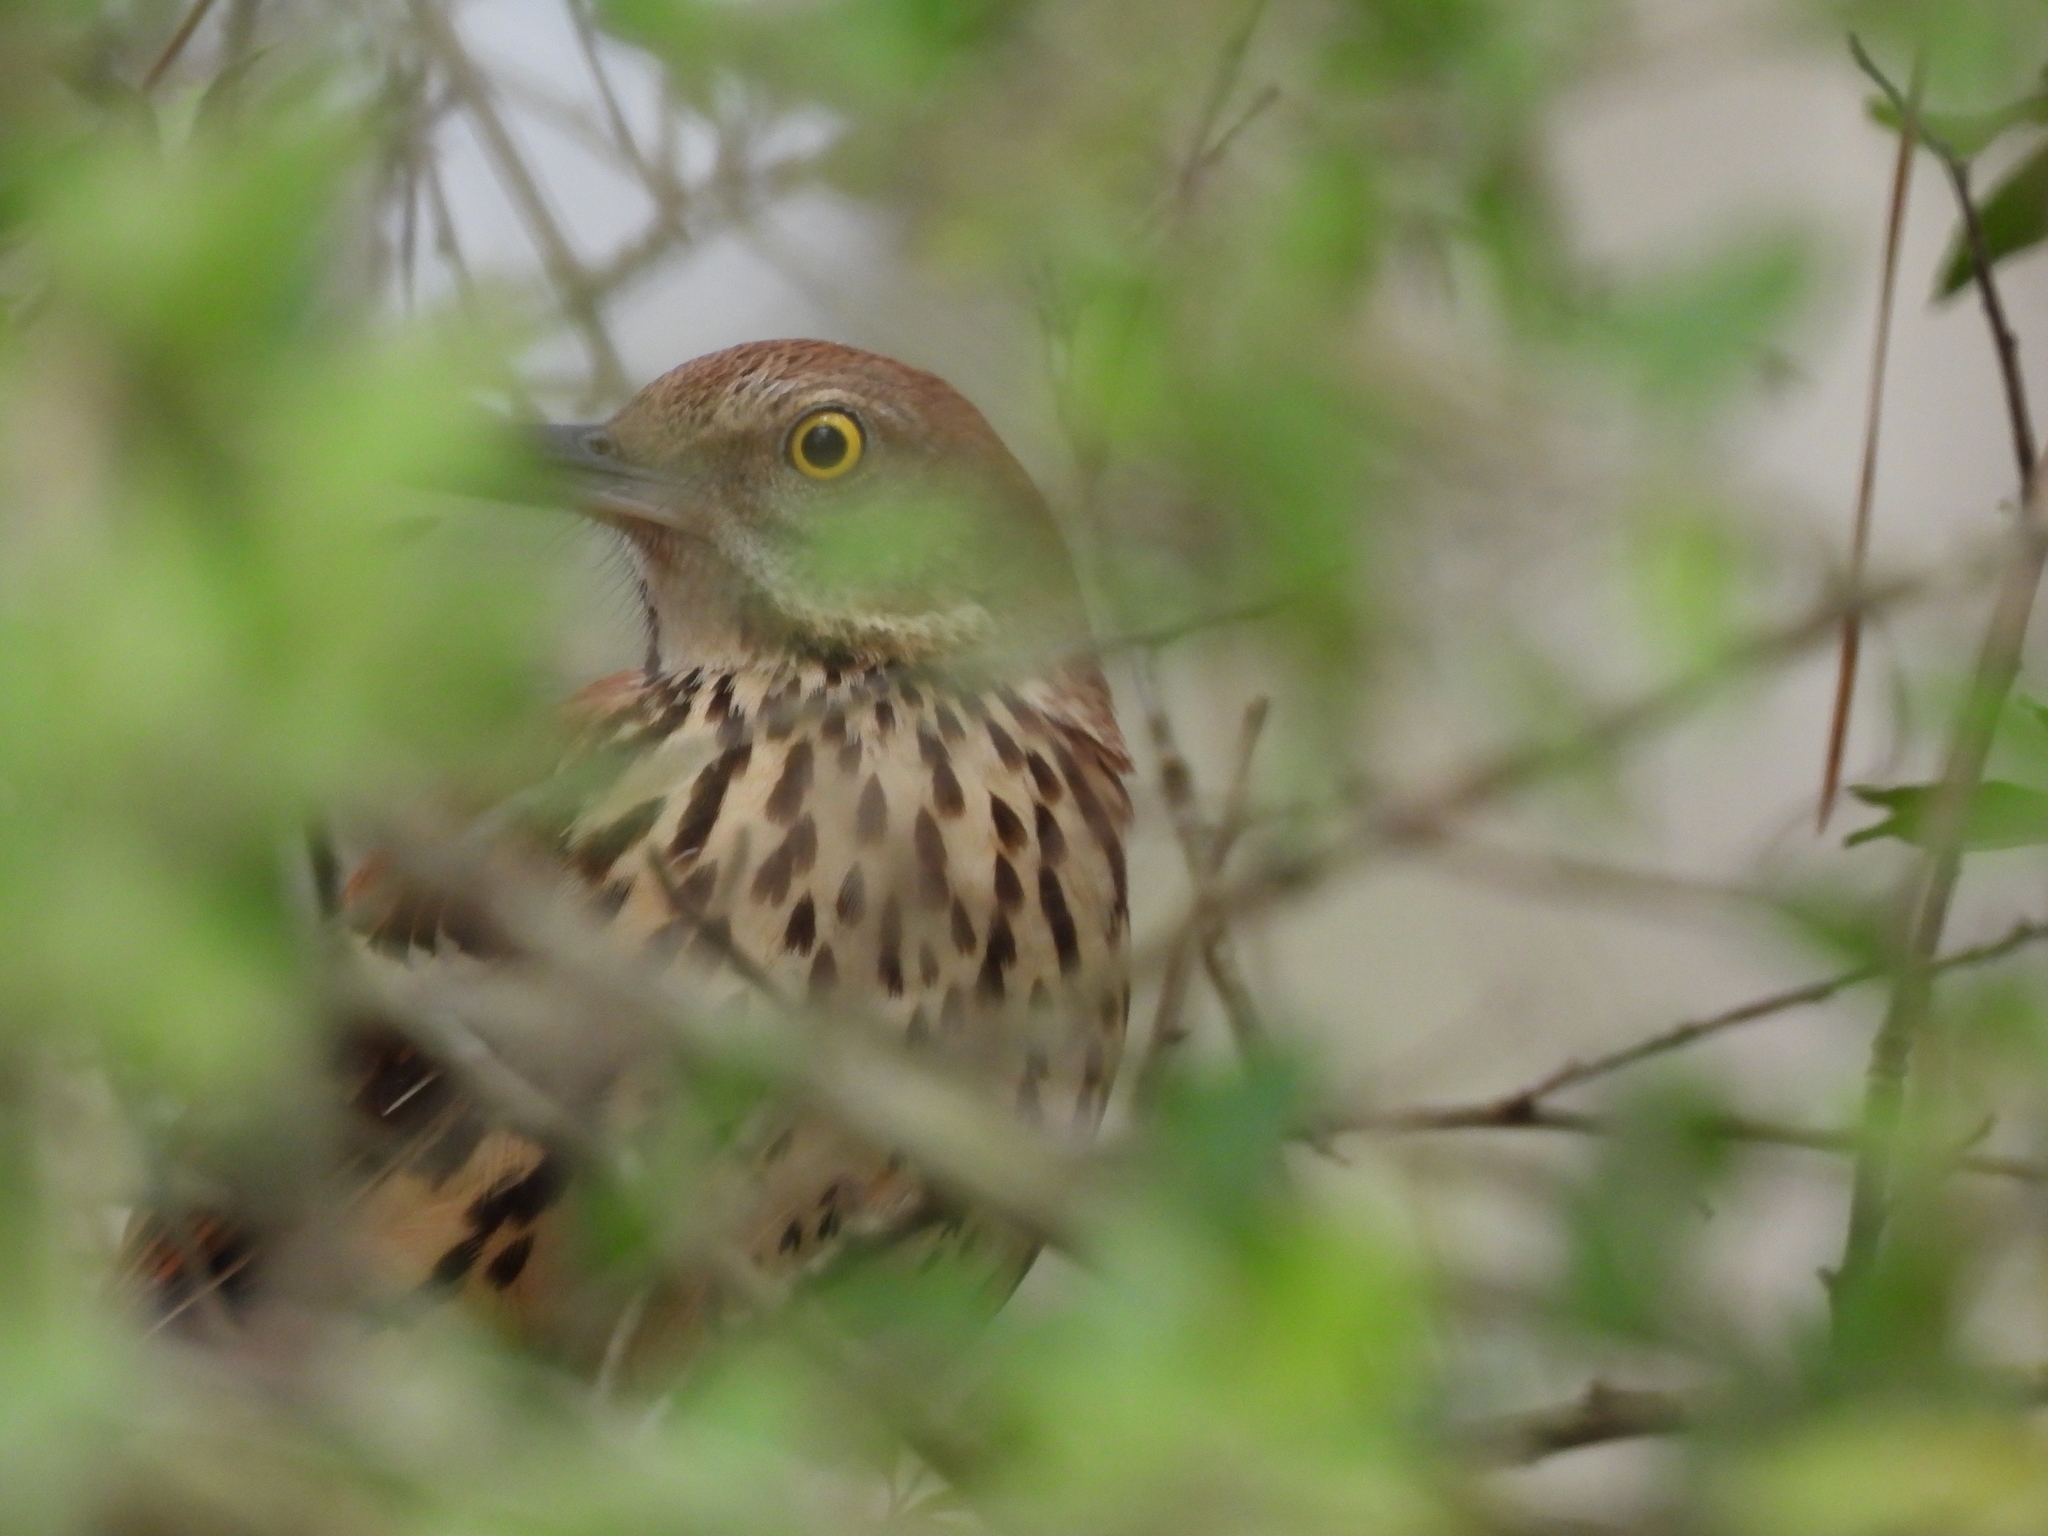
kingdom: Animalia
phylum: Chordata
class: Aves
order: Passeriformes
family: Mimidae
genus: Toxostoma
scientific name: Toxostoma rufum
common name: Brown thrasher
